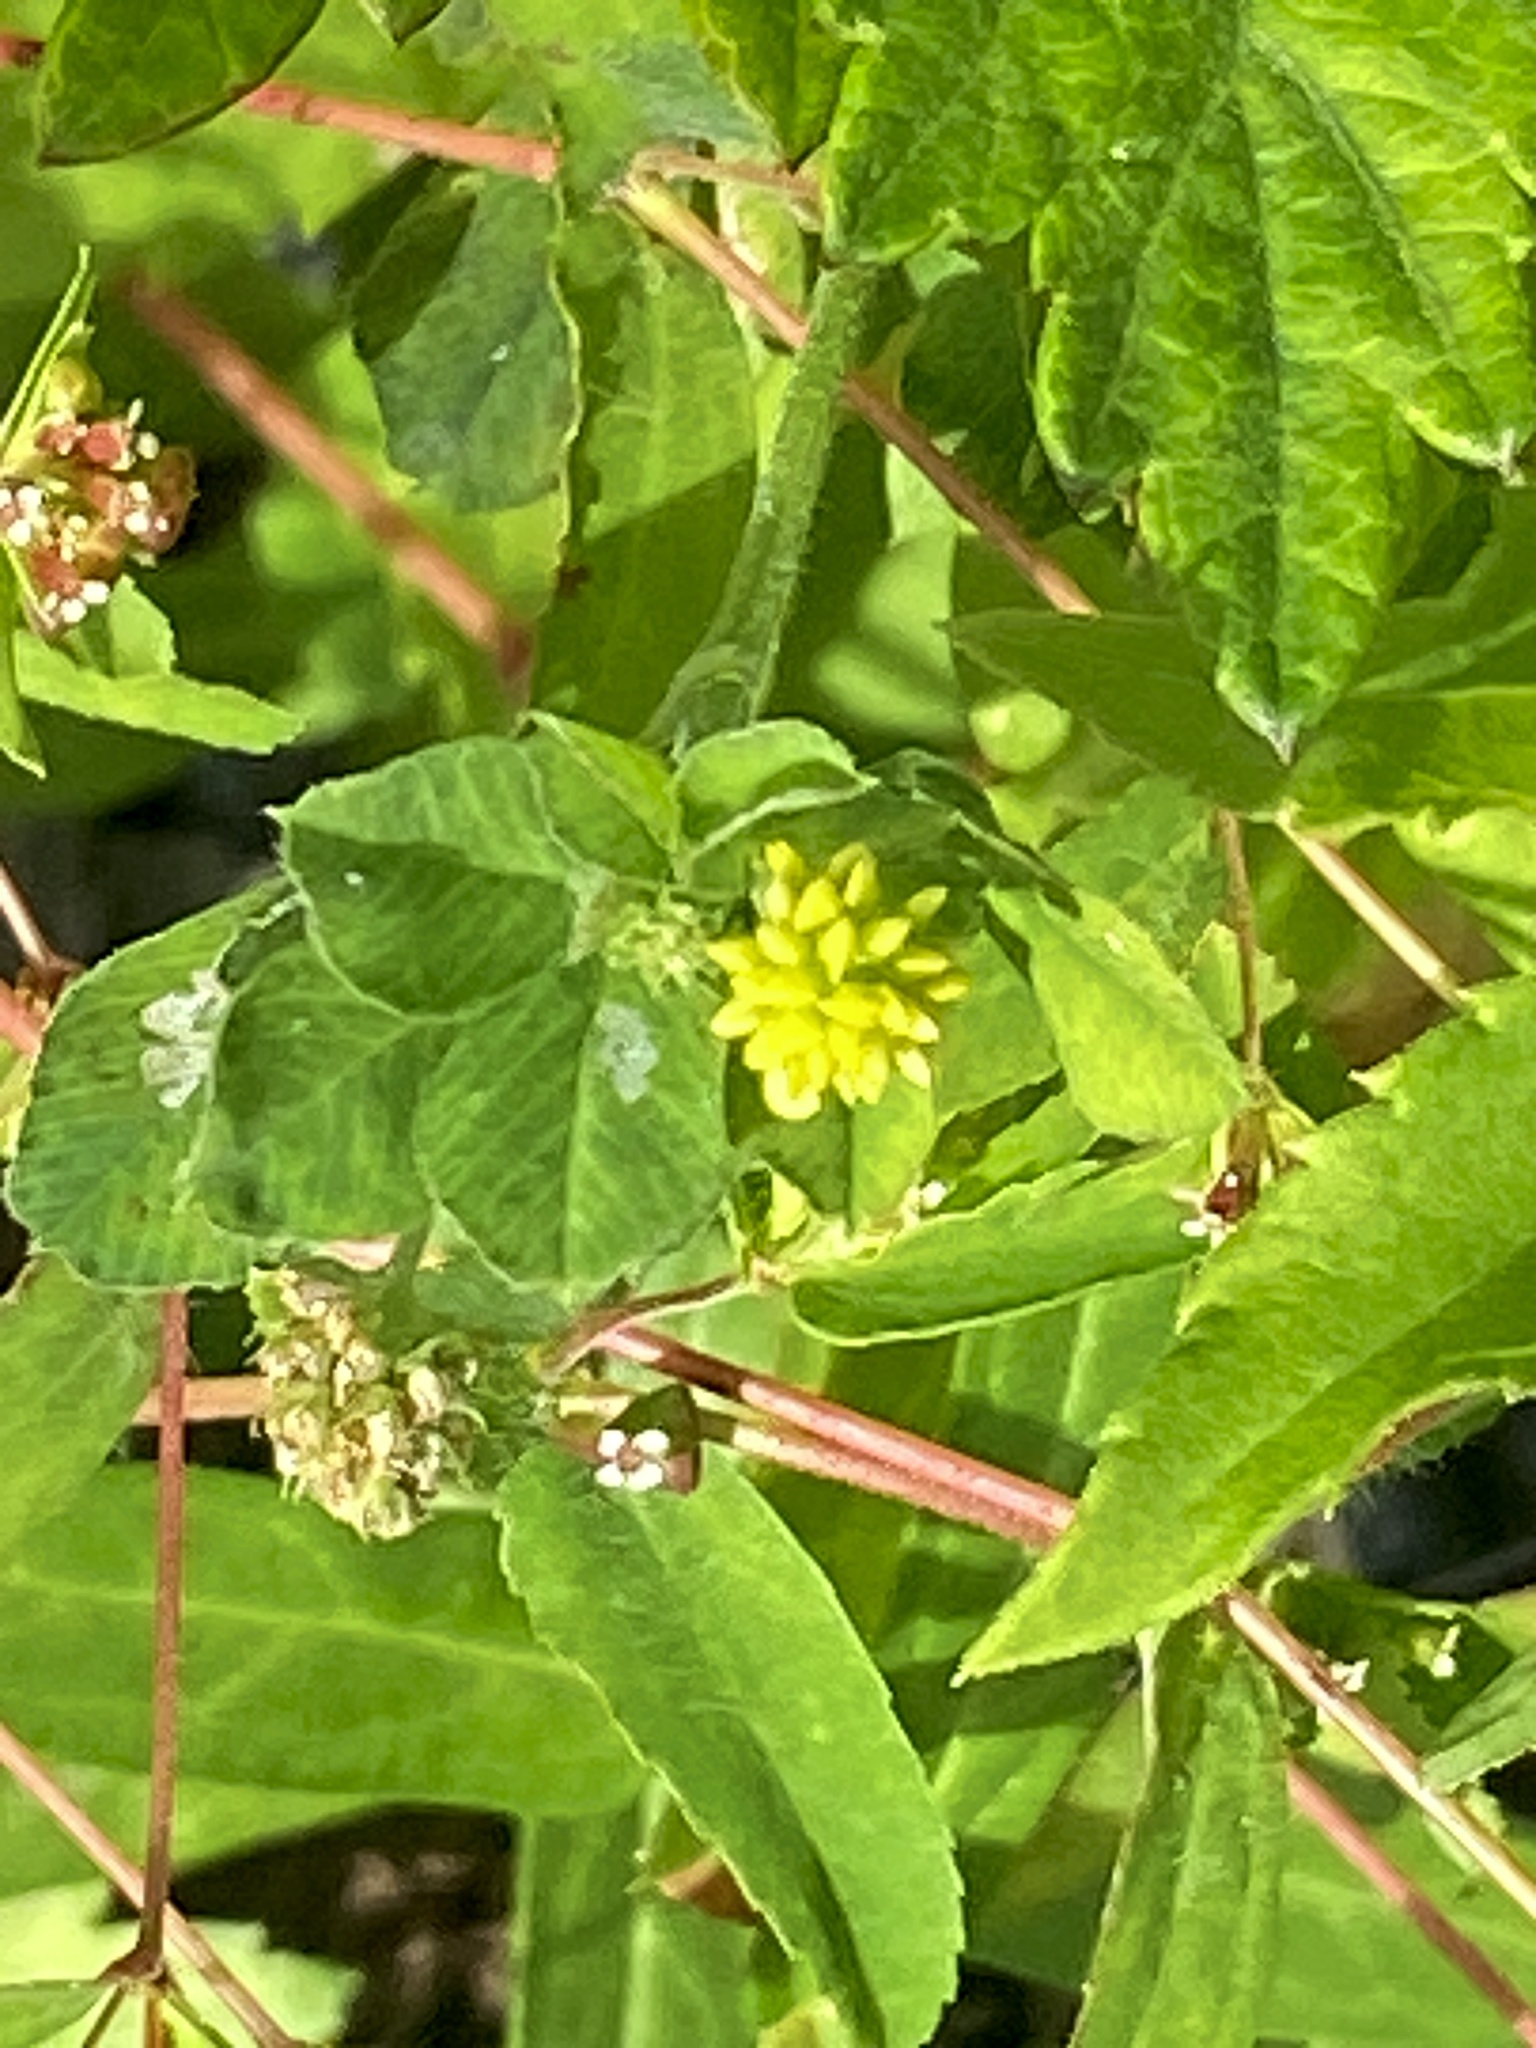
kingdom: Plantae
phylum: Tracheophyta
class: Magnoliopsida
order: Fabales
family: Fabaceae
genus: Medicago
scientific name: Medicago lupulina
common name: Black medick
